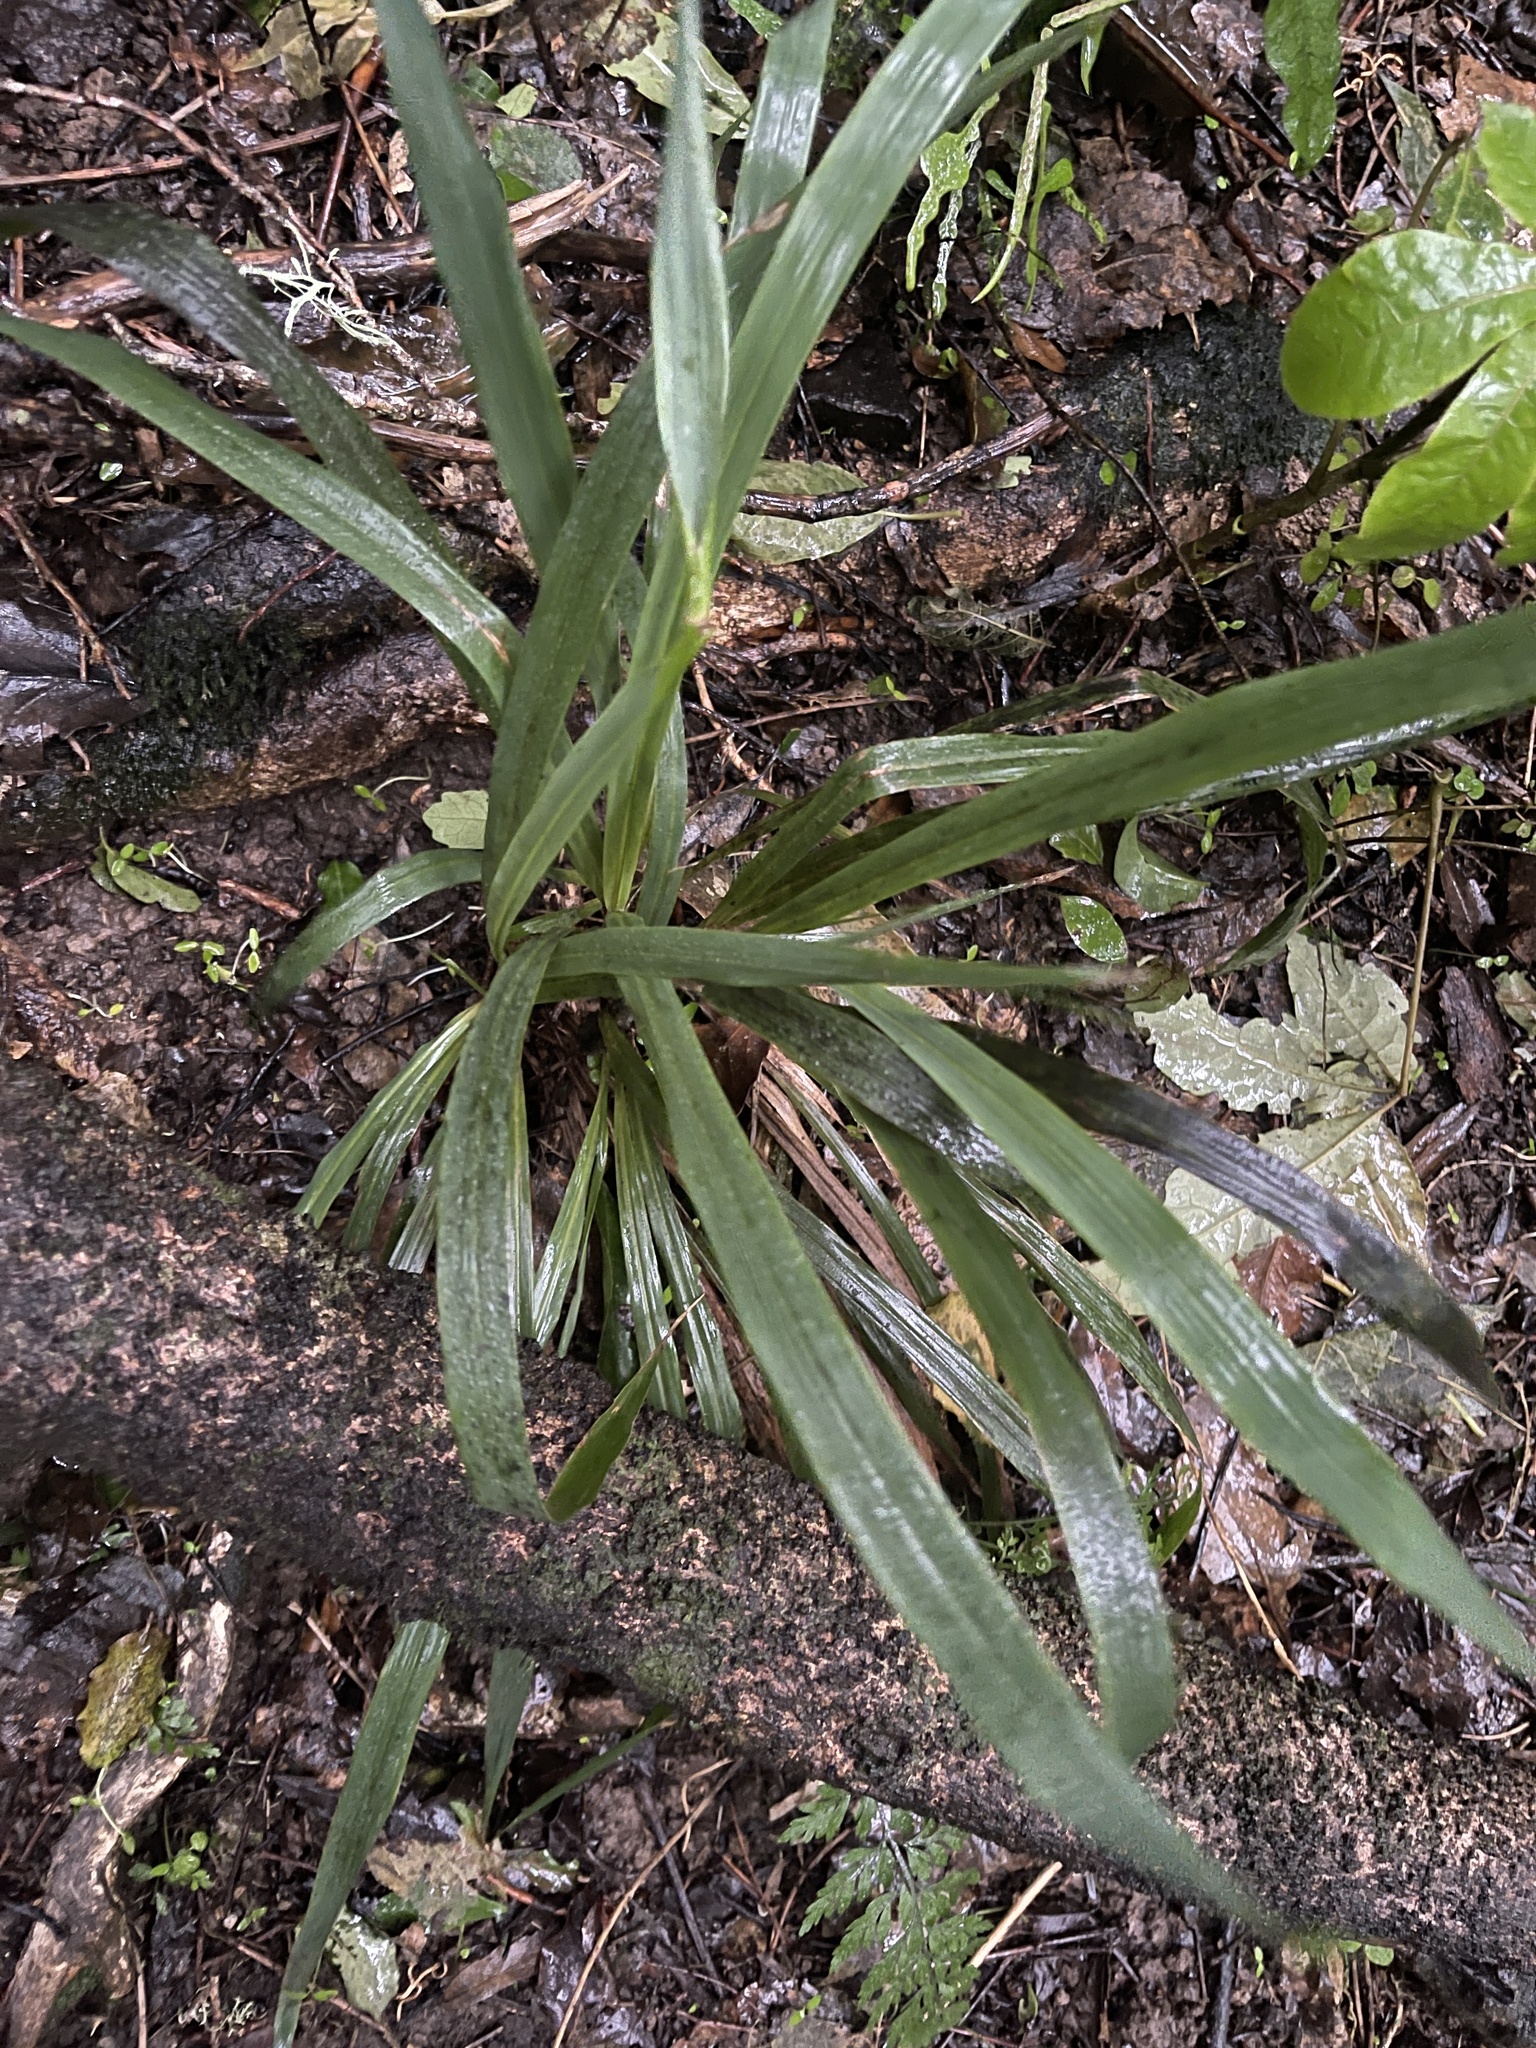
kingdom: Plantae
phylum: Tracheophyta
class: Liliopsida
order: Poales
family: Poaceae
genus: Ehrharta
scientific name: Ehrharta diplax
